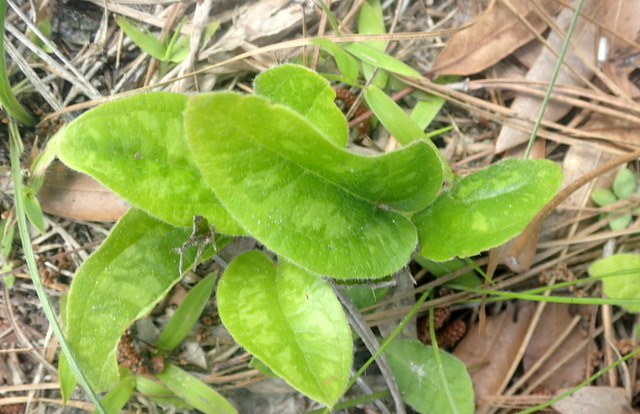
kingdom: Plantae
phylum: Tracheophyta
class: Liliopsida
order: Liliales
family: Smilacaceae
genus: Smilax
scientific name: Smilax pumila
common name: Sarsaparilla-vine
